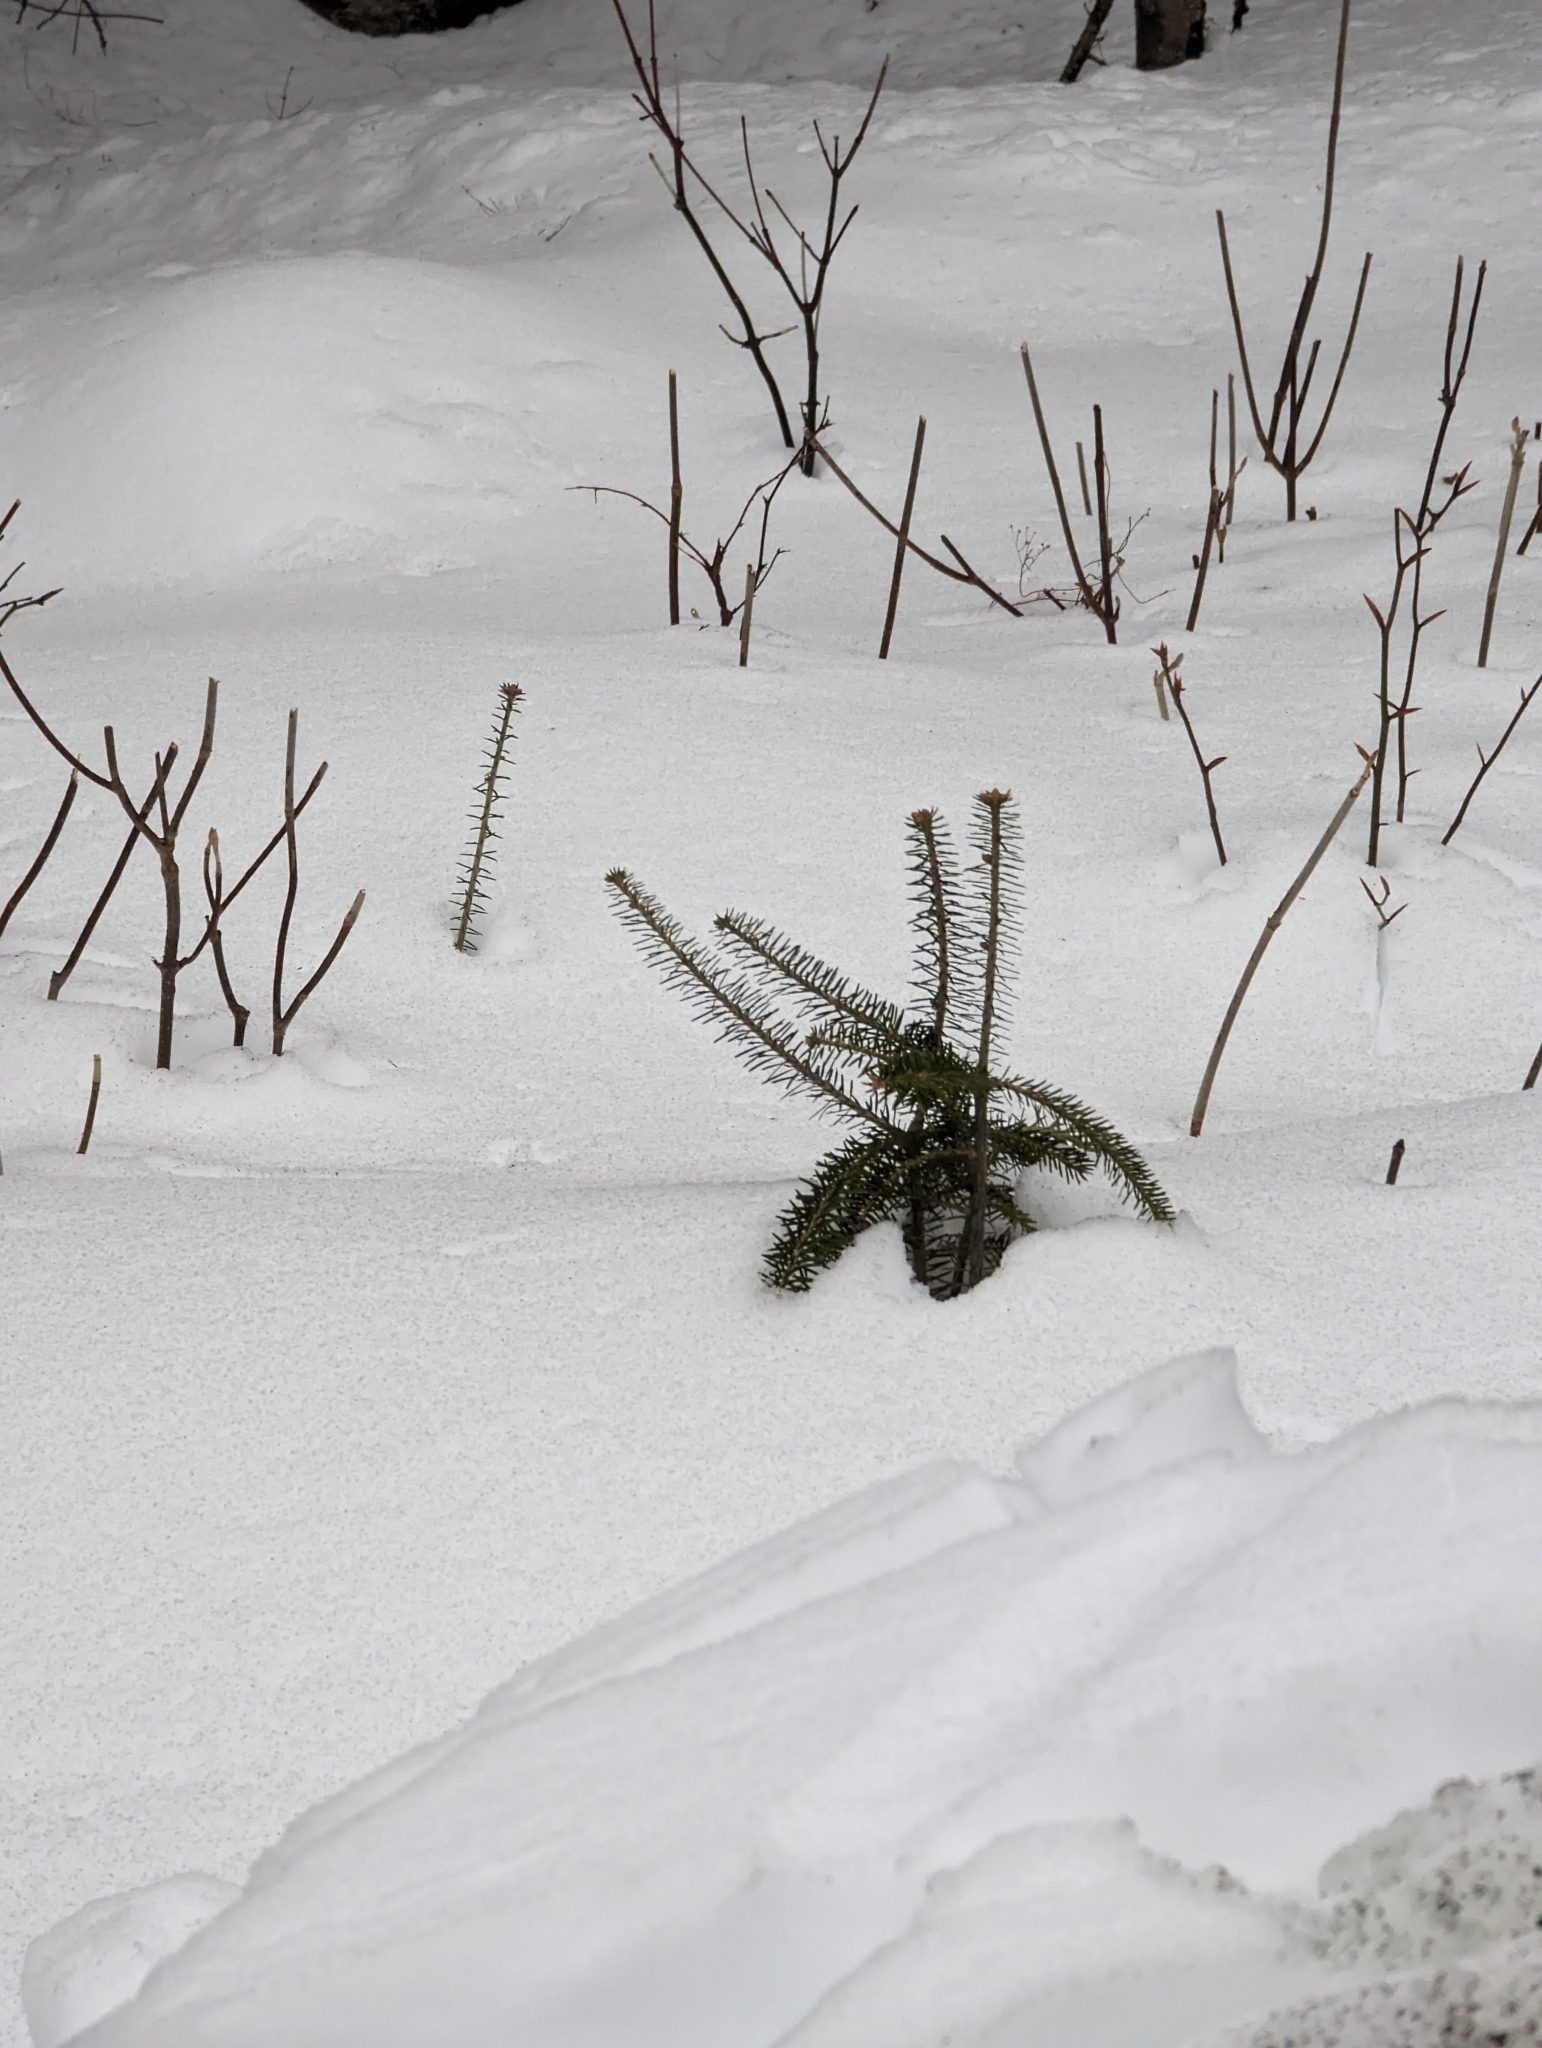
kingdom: Plantae
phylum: Tracheophyta
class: Pinopsida
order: Pinales
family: Pinaceae
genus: Abies
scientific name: Abies balsamea
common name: Balsam fir
